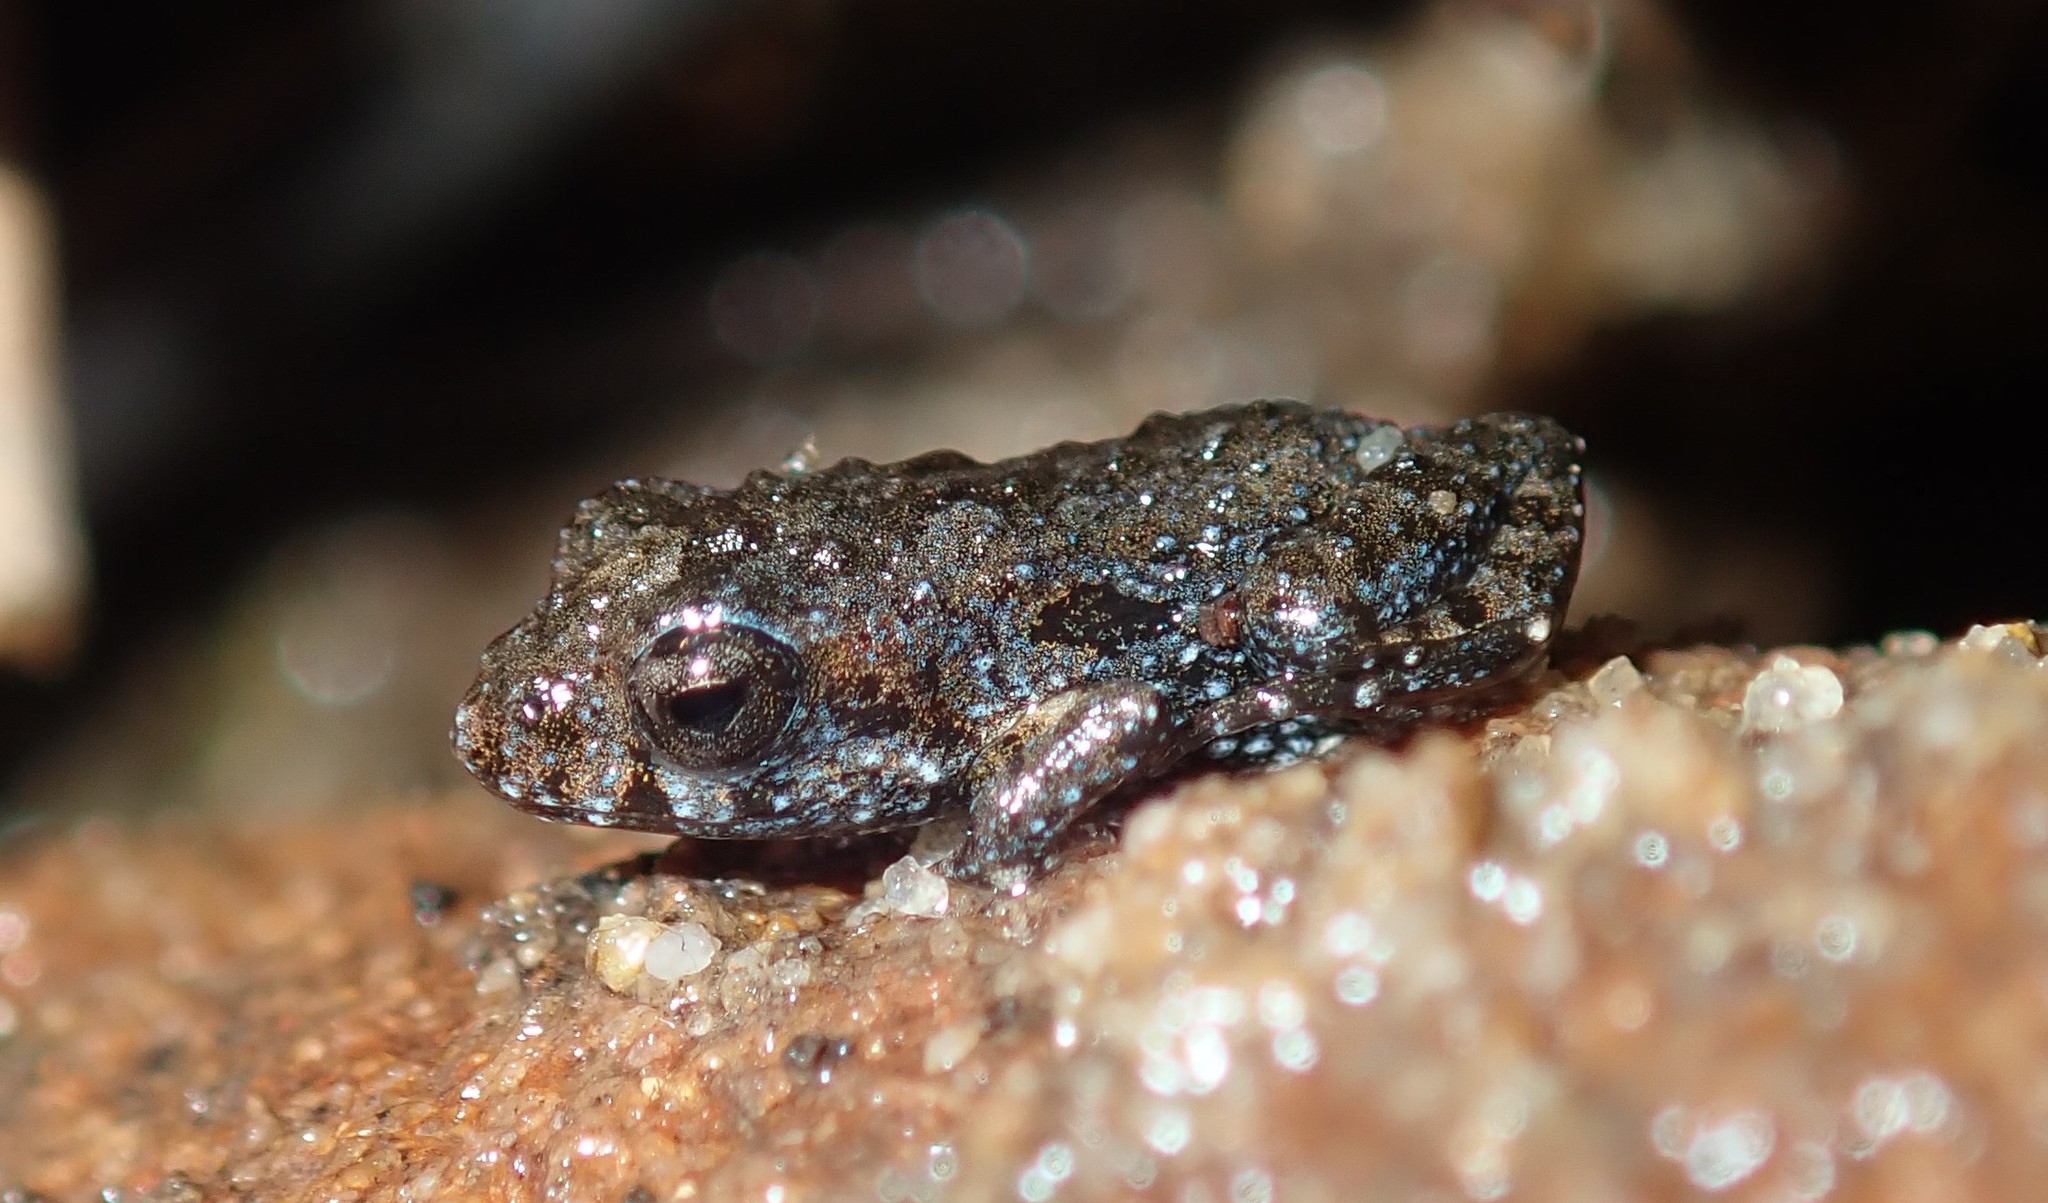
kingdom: Animalia
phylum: Chordata
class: Amphibia
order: Anura
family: Myobatrachidae
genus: Crinia
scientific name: Crinia signifera
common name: Brown froglet
